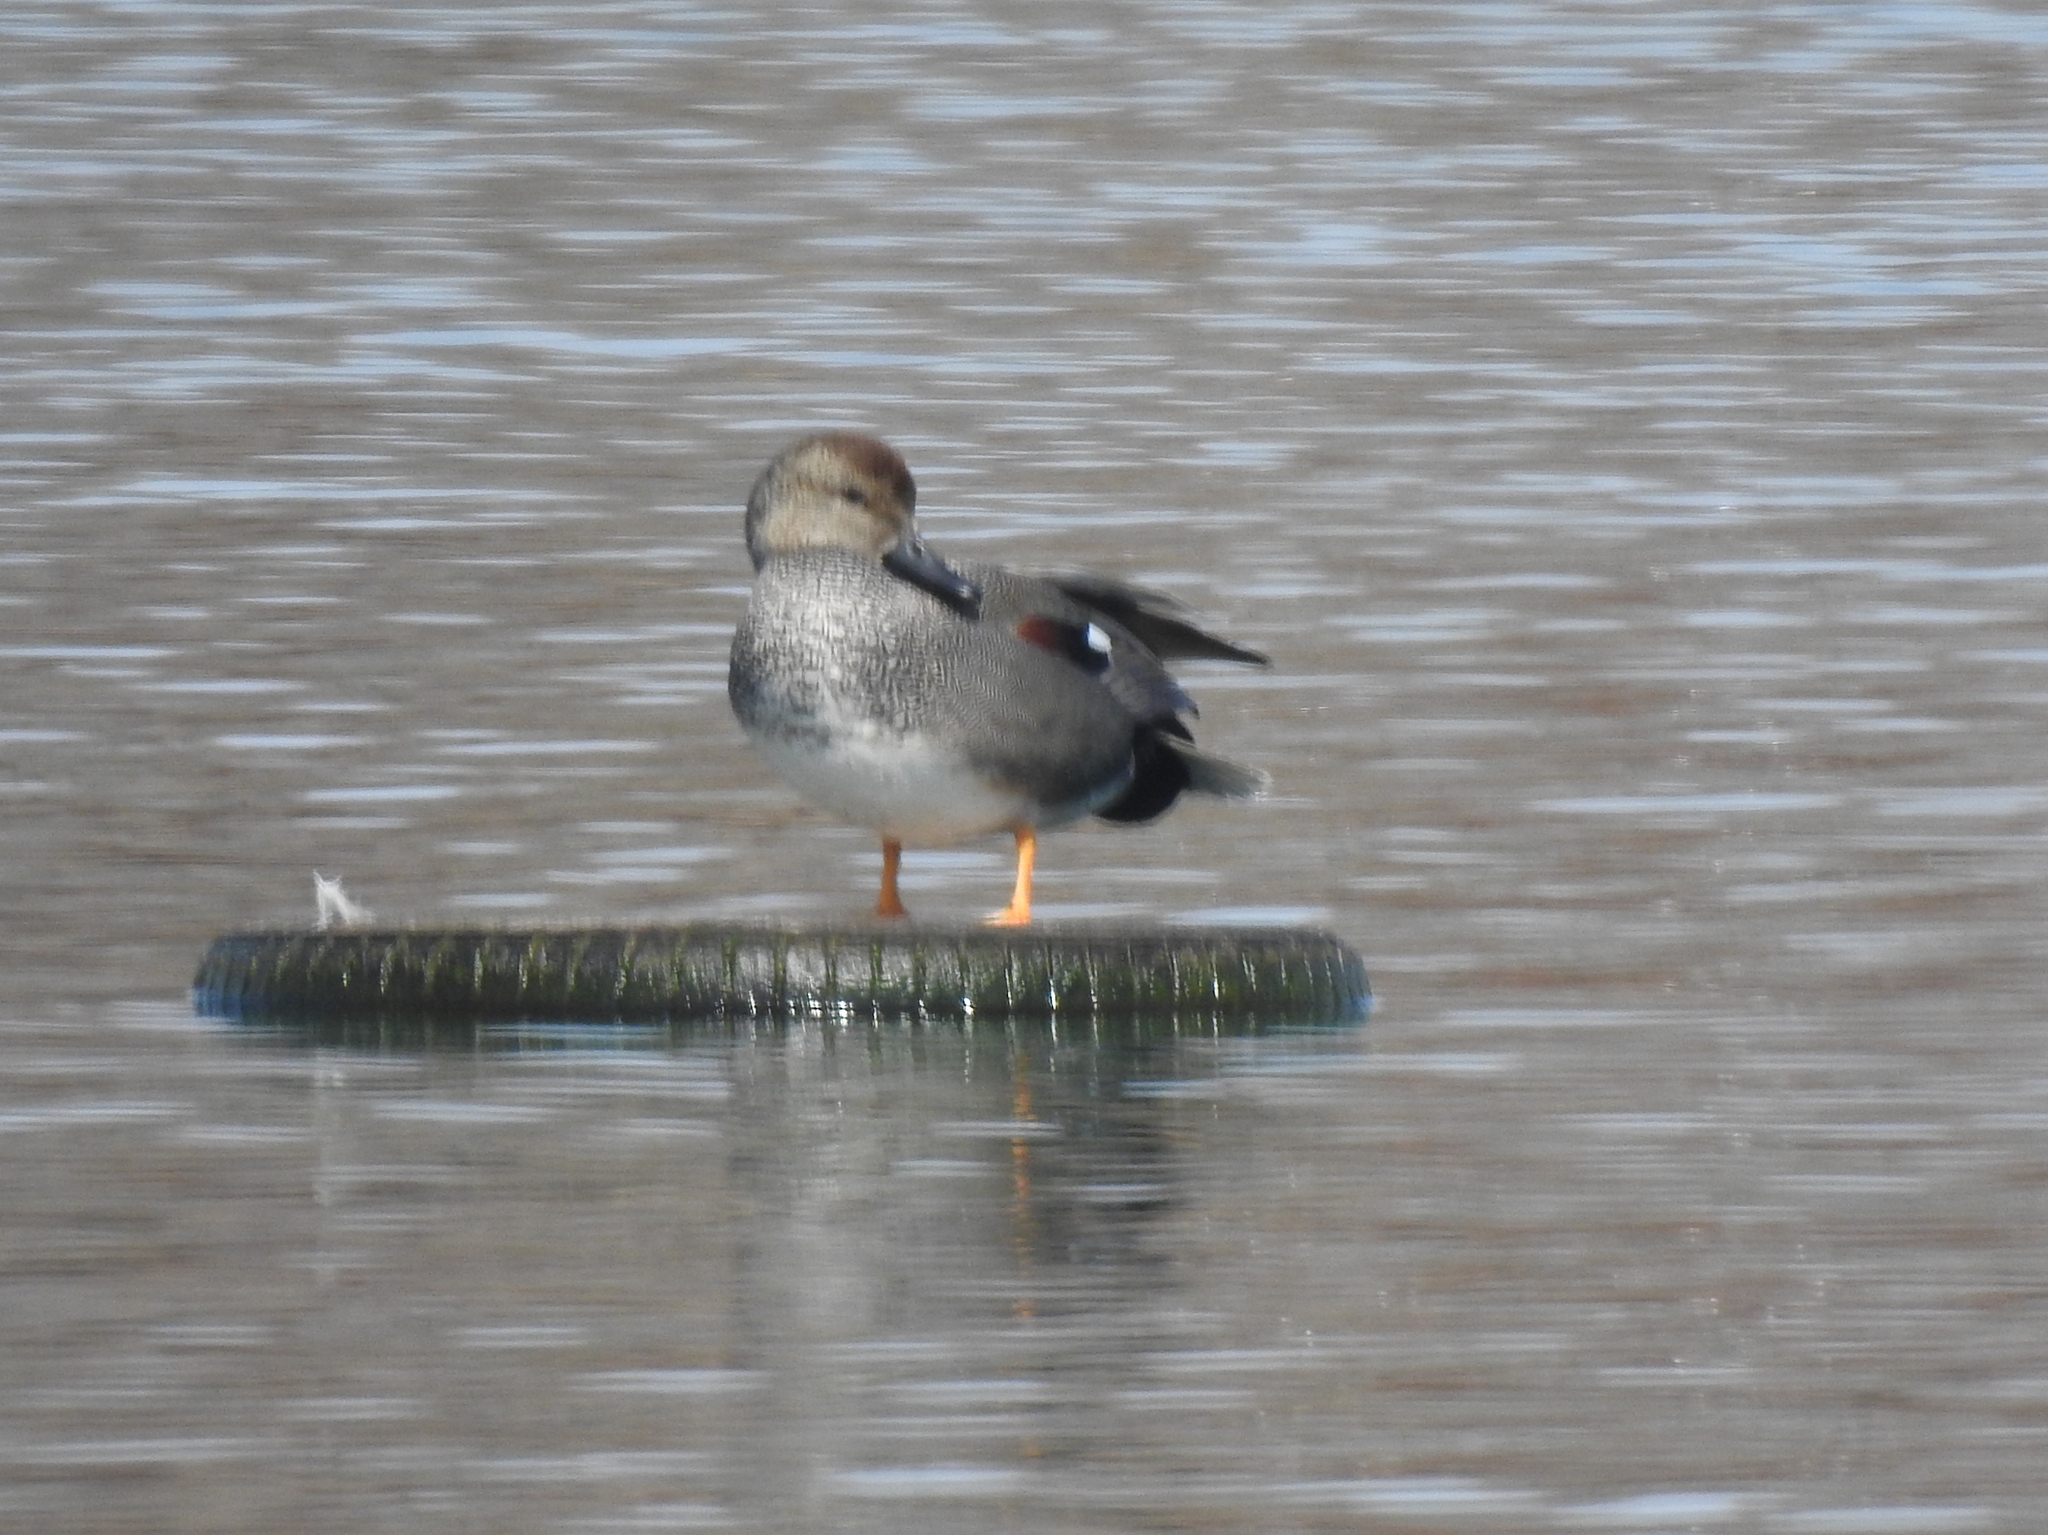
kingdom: Animalia
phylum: Chordata
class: Aves
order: Anseriformes
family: Anatidae
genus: Mareca
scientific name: Mareca strepera
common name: Gadwall
